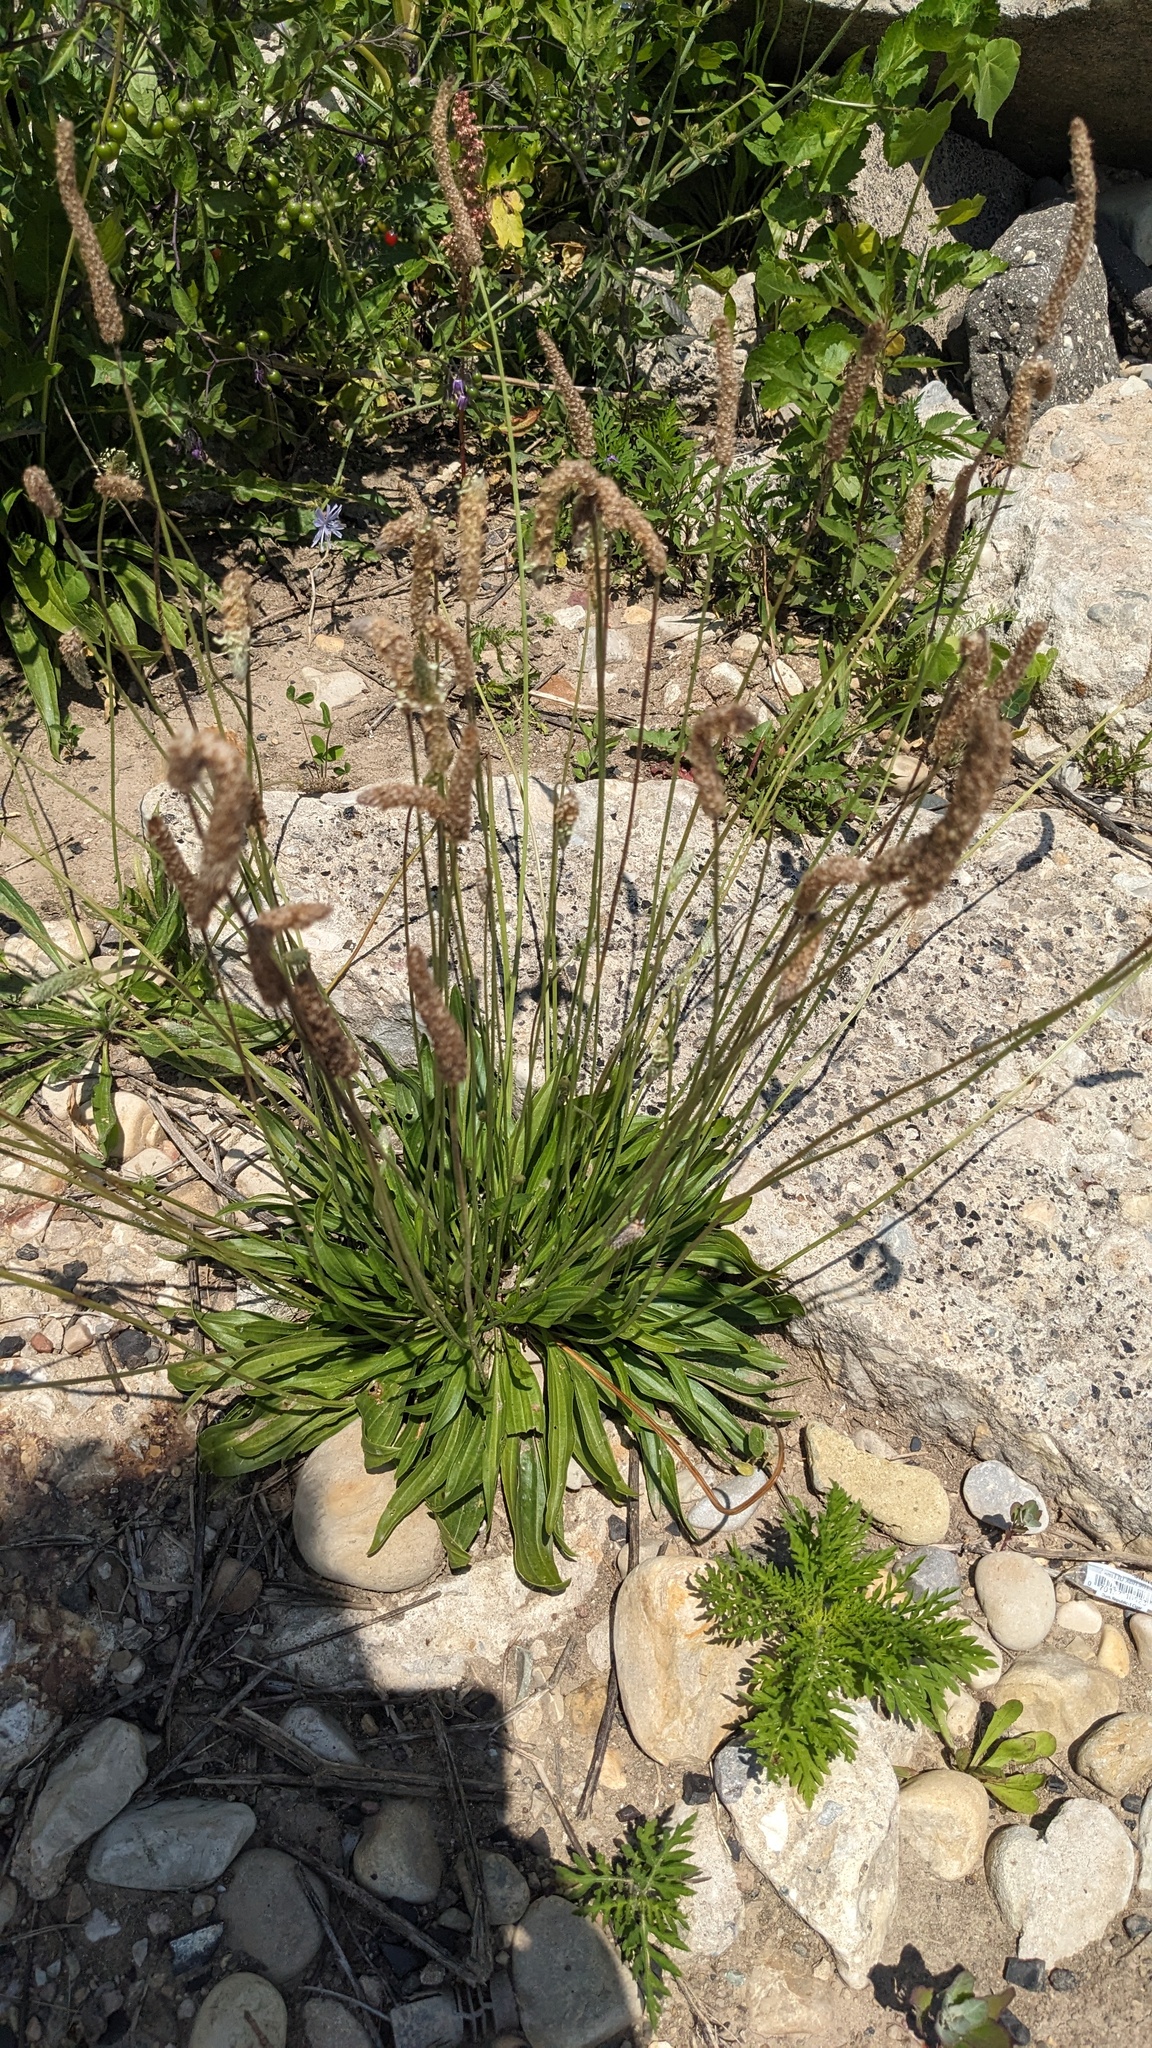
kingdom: Plantae
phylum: Tracheophyta
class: Magnoliopsida
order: Lamiales
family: Plantaginaceae
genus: Plantago
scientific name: Plantago lanceolata
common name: Ribwort plantain
